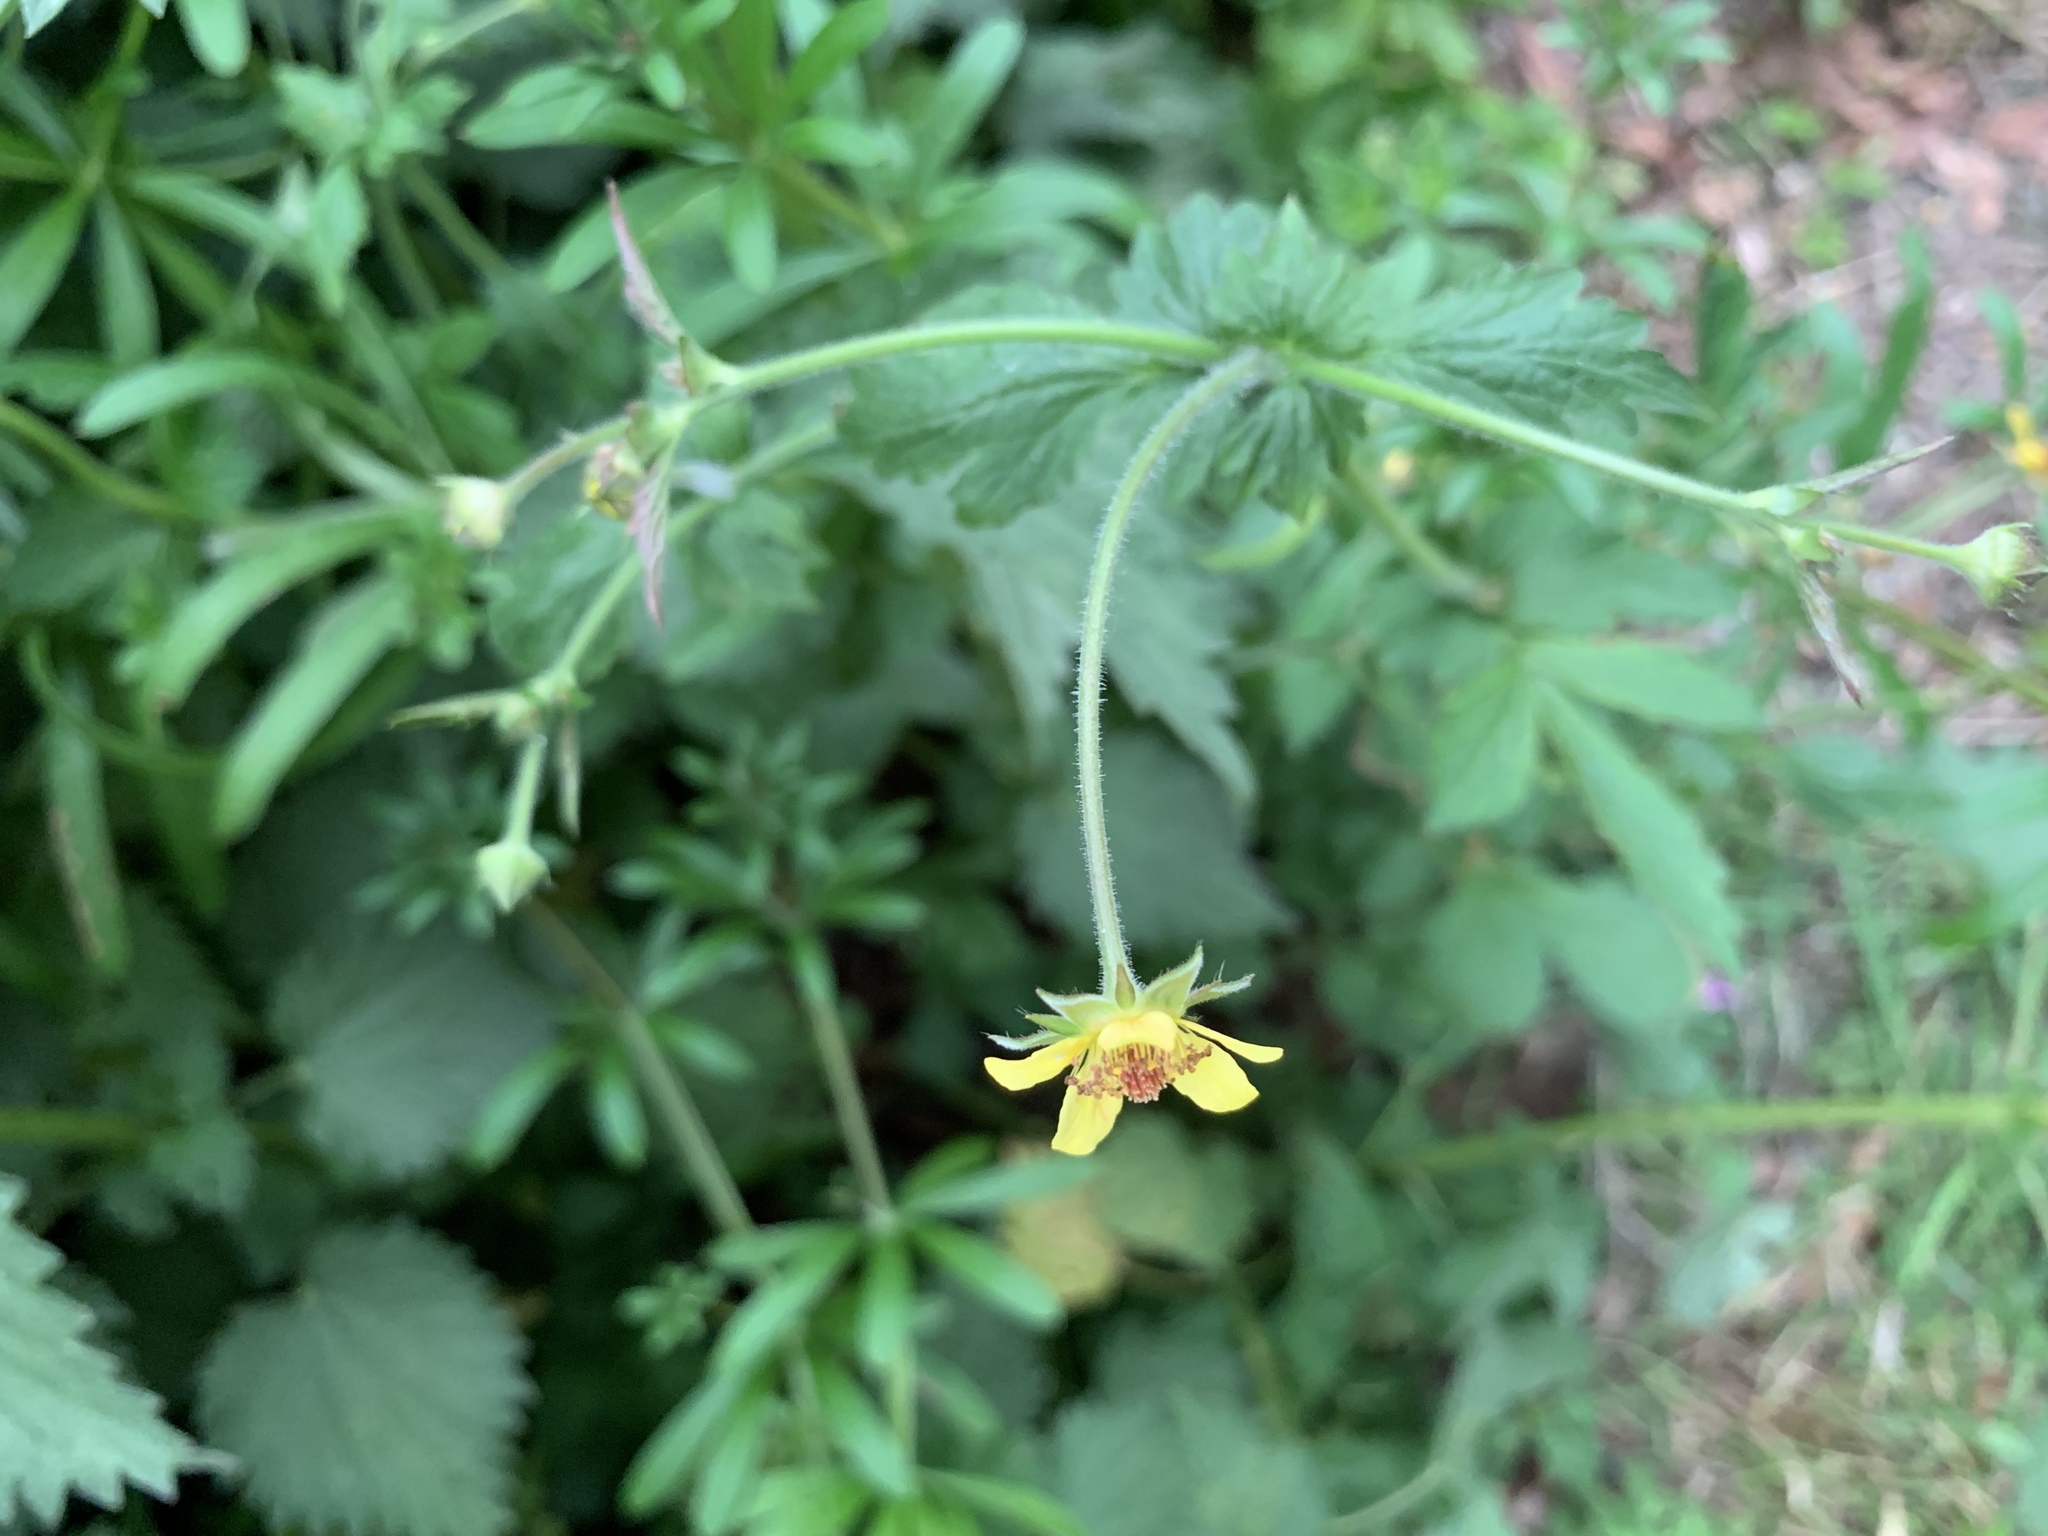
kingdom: Plantae
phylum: Tracheophyta
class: Magnoliopsida
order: Rosales
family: Rosaceae
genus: Geum
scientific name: Geum urbanum
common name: Wood avens
